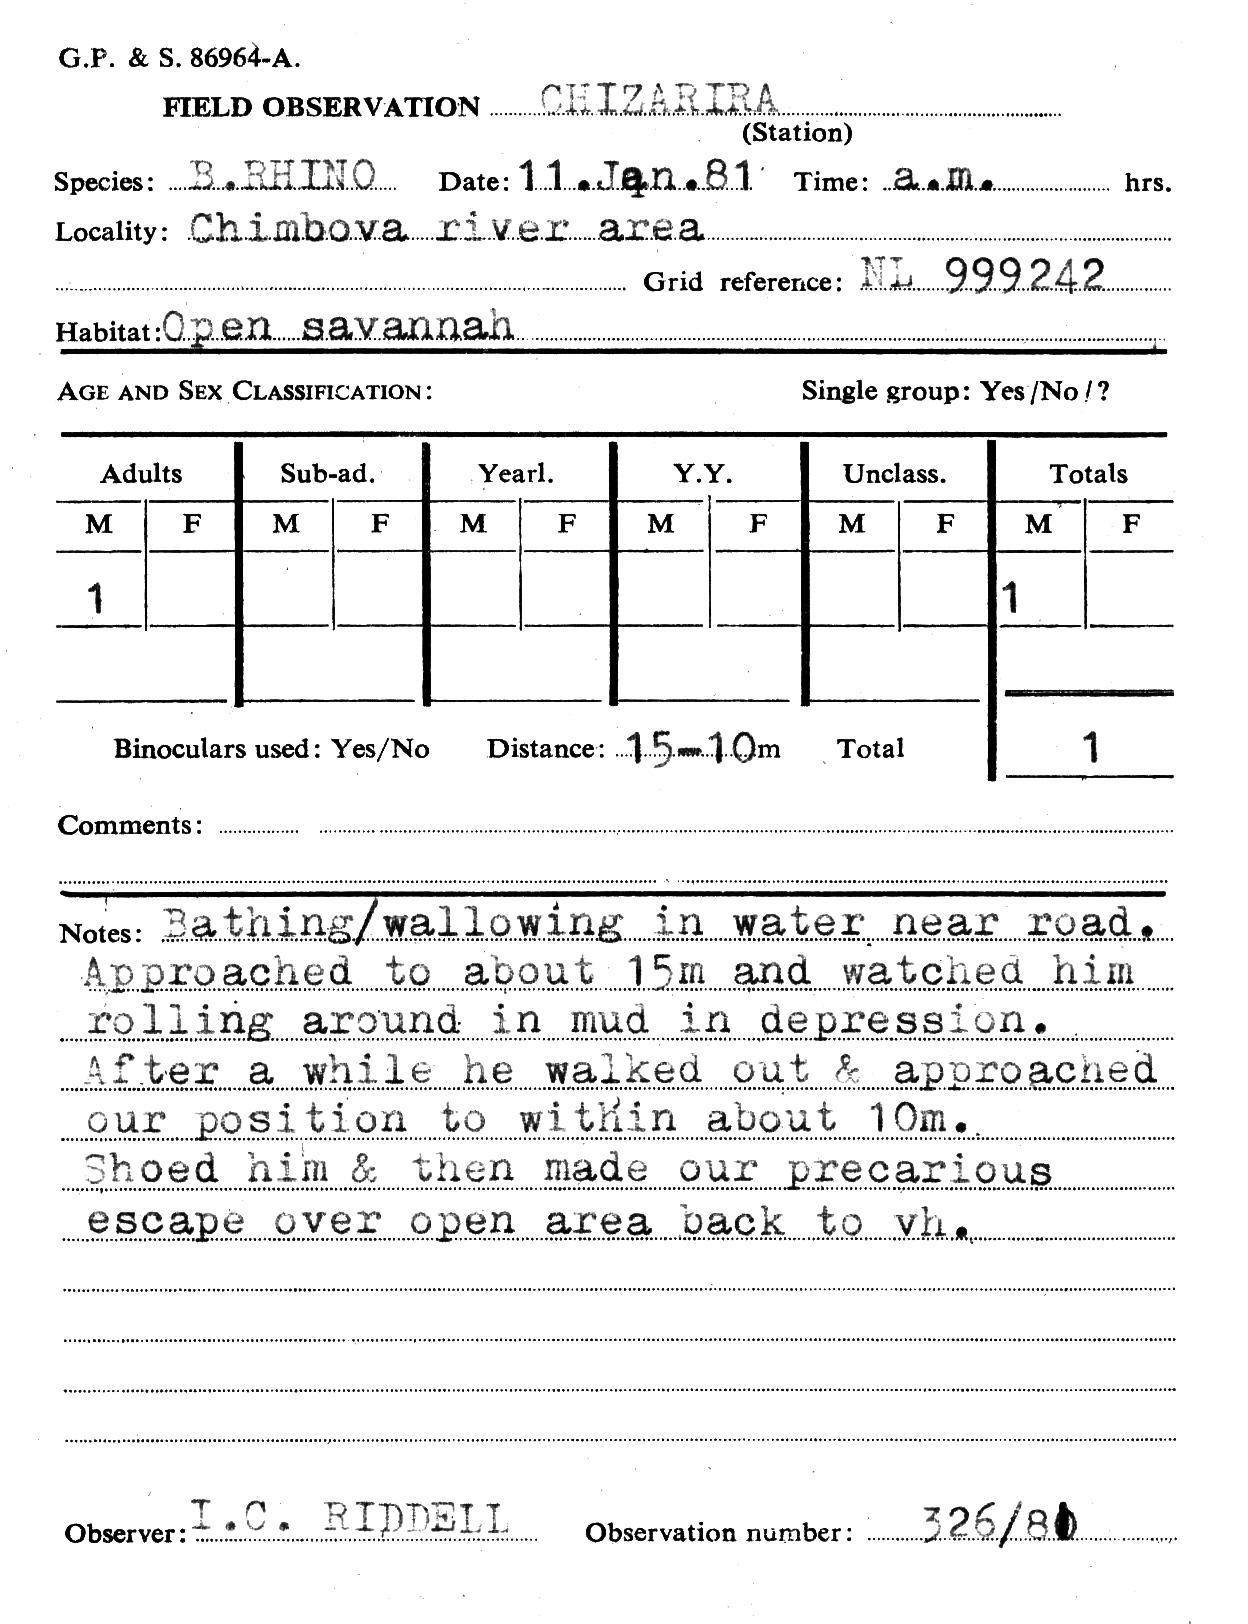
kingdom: Animalia
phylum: Chordata
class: Mammalia
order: Perissodactyla
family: Rhinocerotidae
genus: Diceros
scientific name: Diceros bicornis
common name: Black rhinoceros
